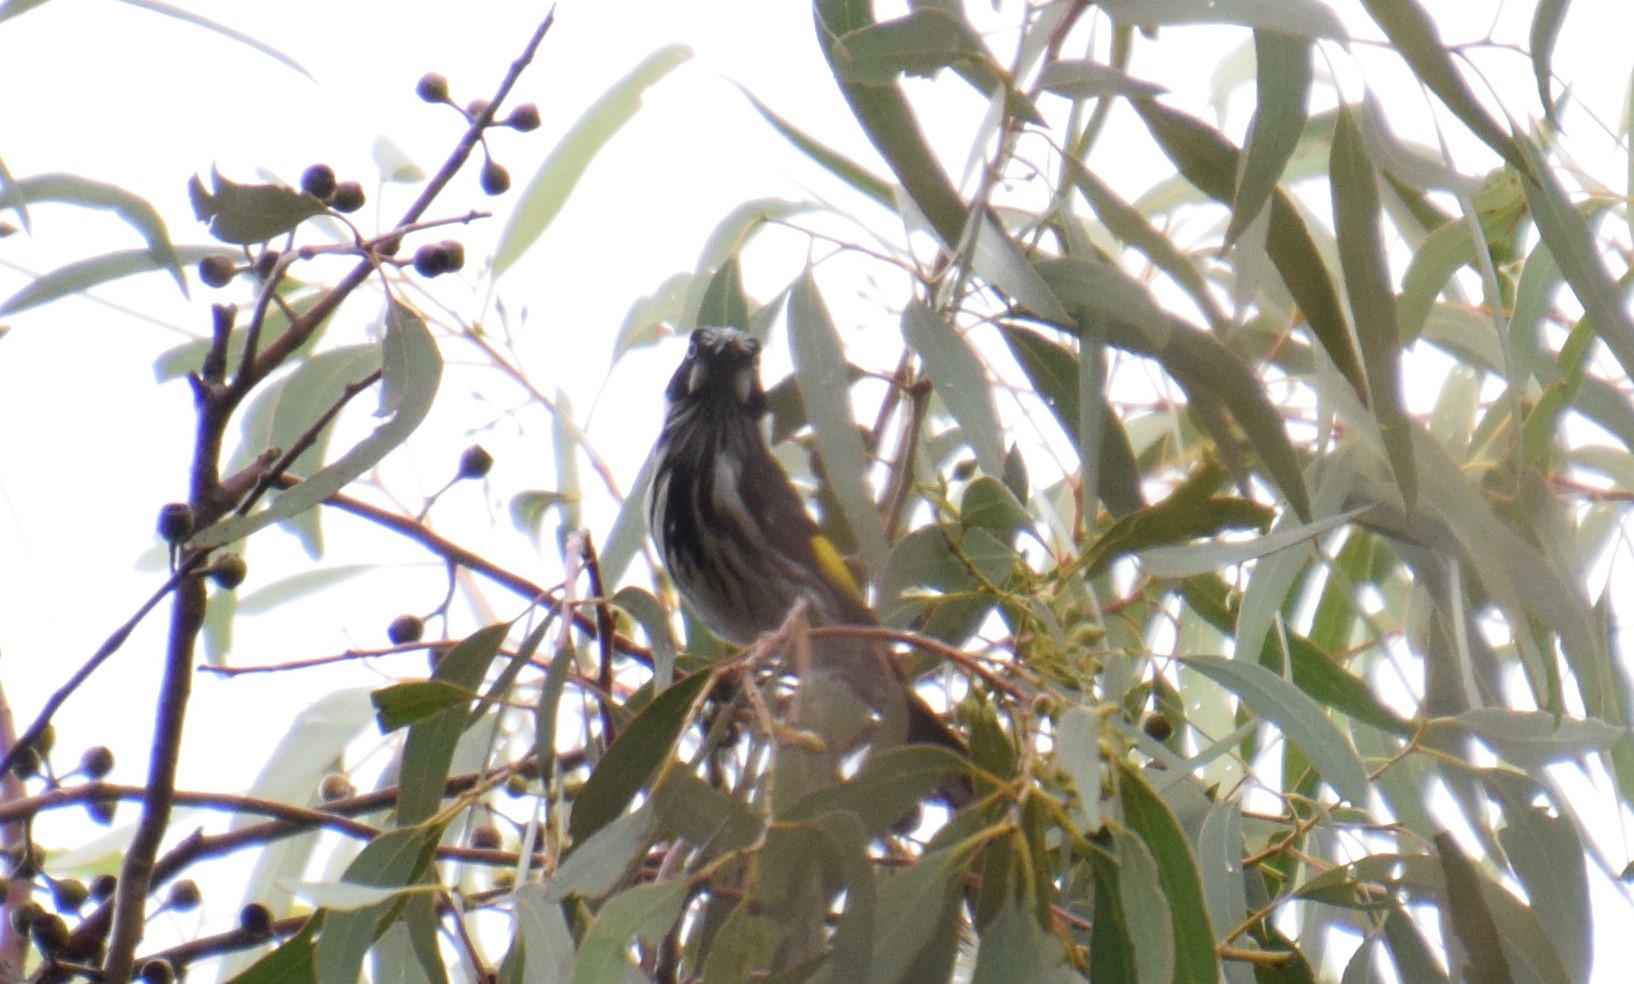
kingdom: Animalia
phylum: Chordata
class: Aves
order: Passeriformes
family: Meliphagidae
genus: Phylidonyris
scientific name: Phylidonyris novaehollandiae
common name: New holland honeyeater
